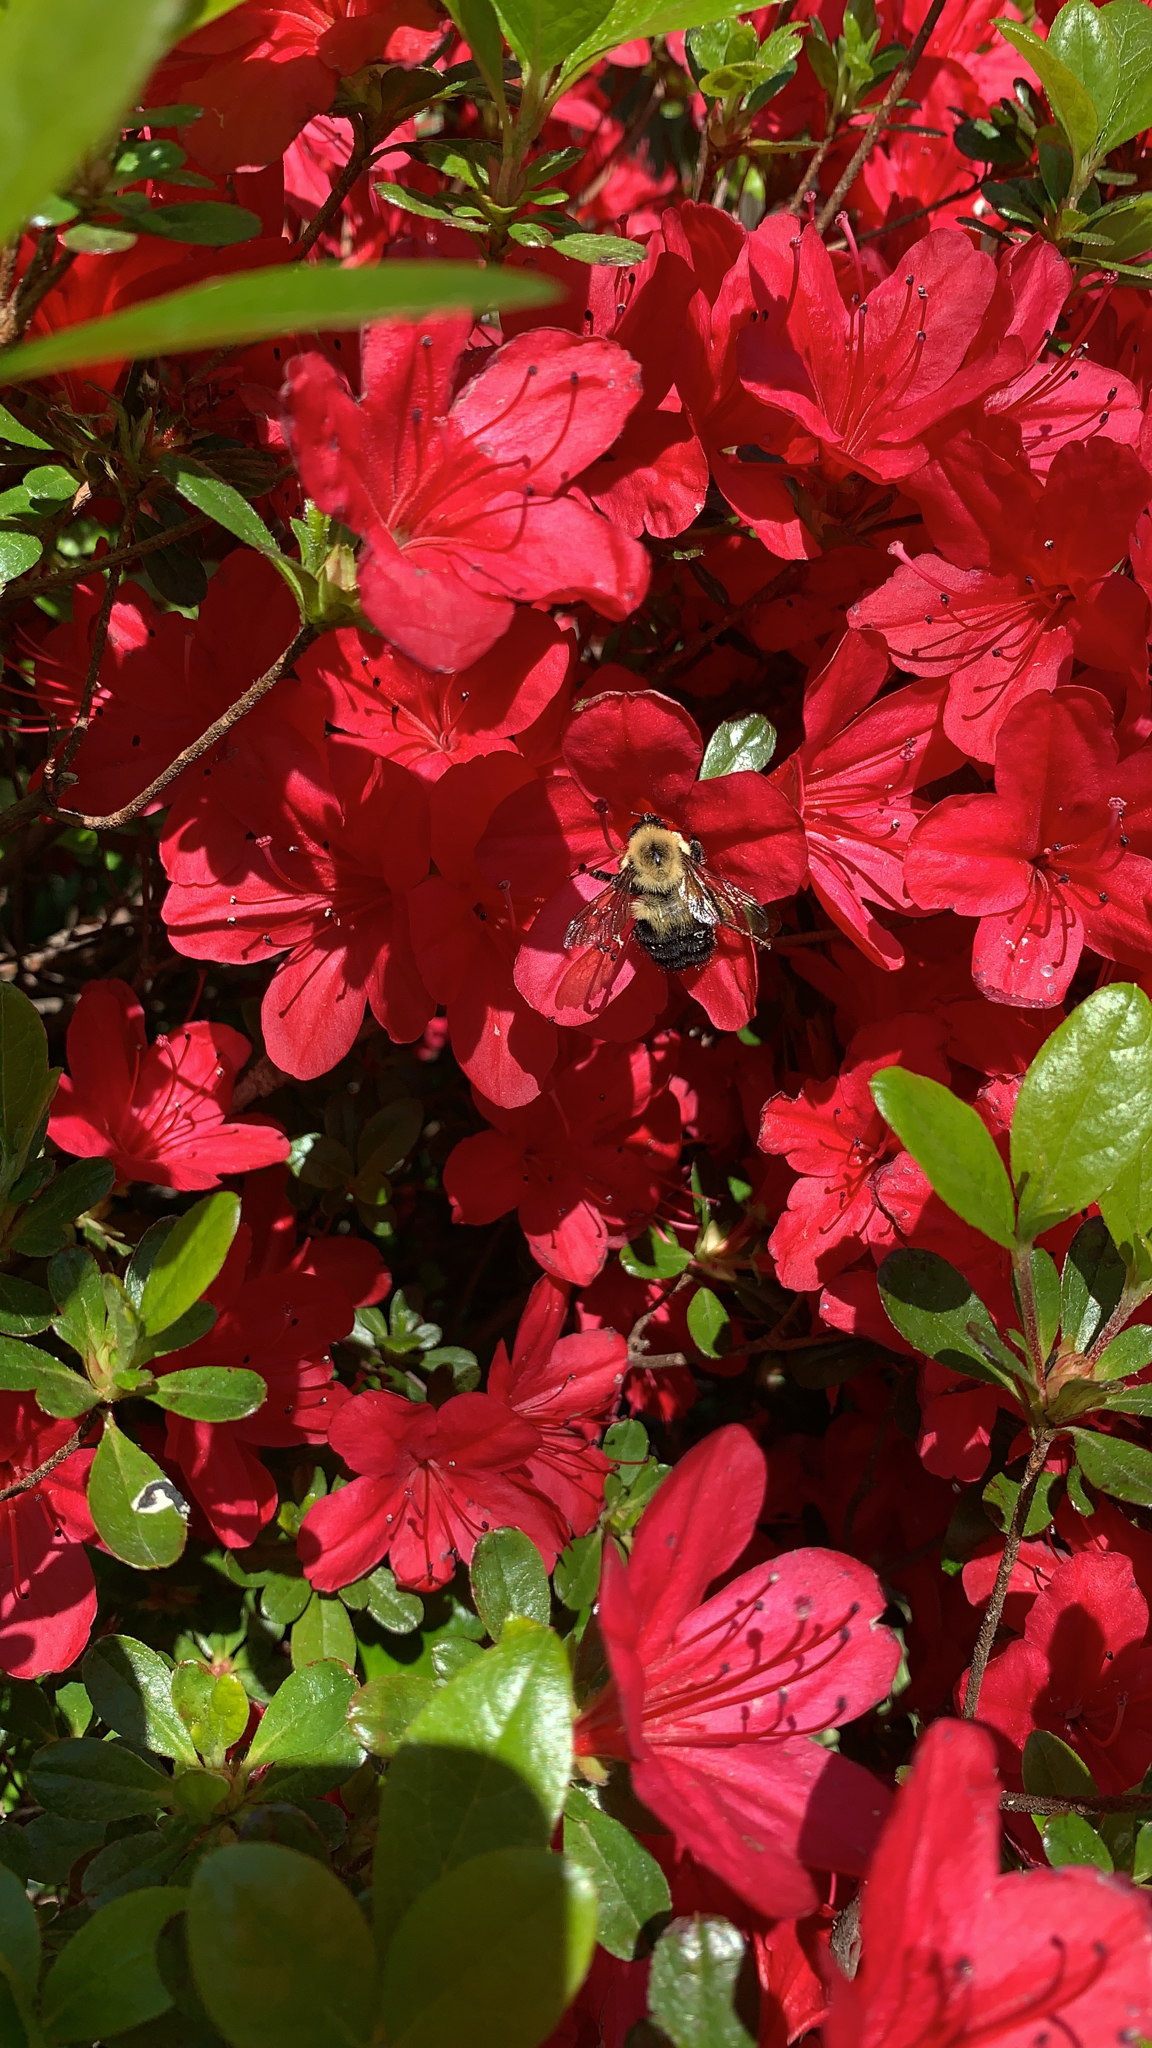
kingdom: Animalia
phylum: Arthropoda
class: Insecta
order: Hymenoptera
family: Apidae
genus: Bombus
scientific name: Bombus bimaculatus
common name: Two-spotted bumble bee
